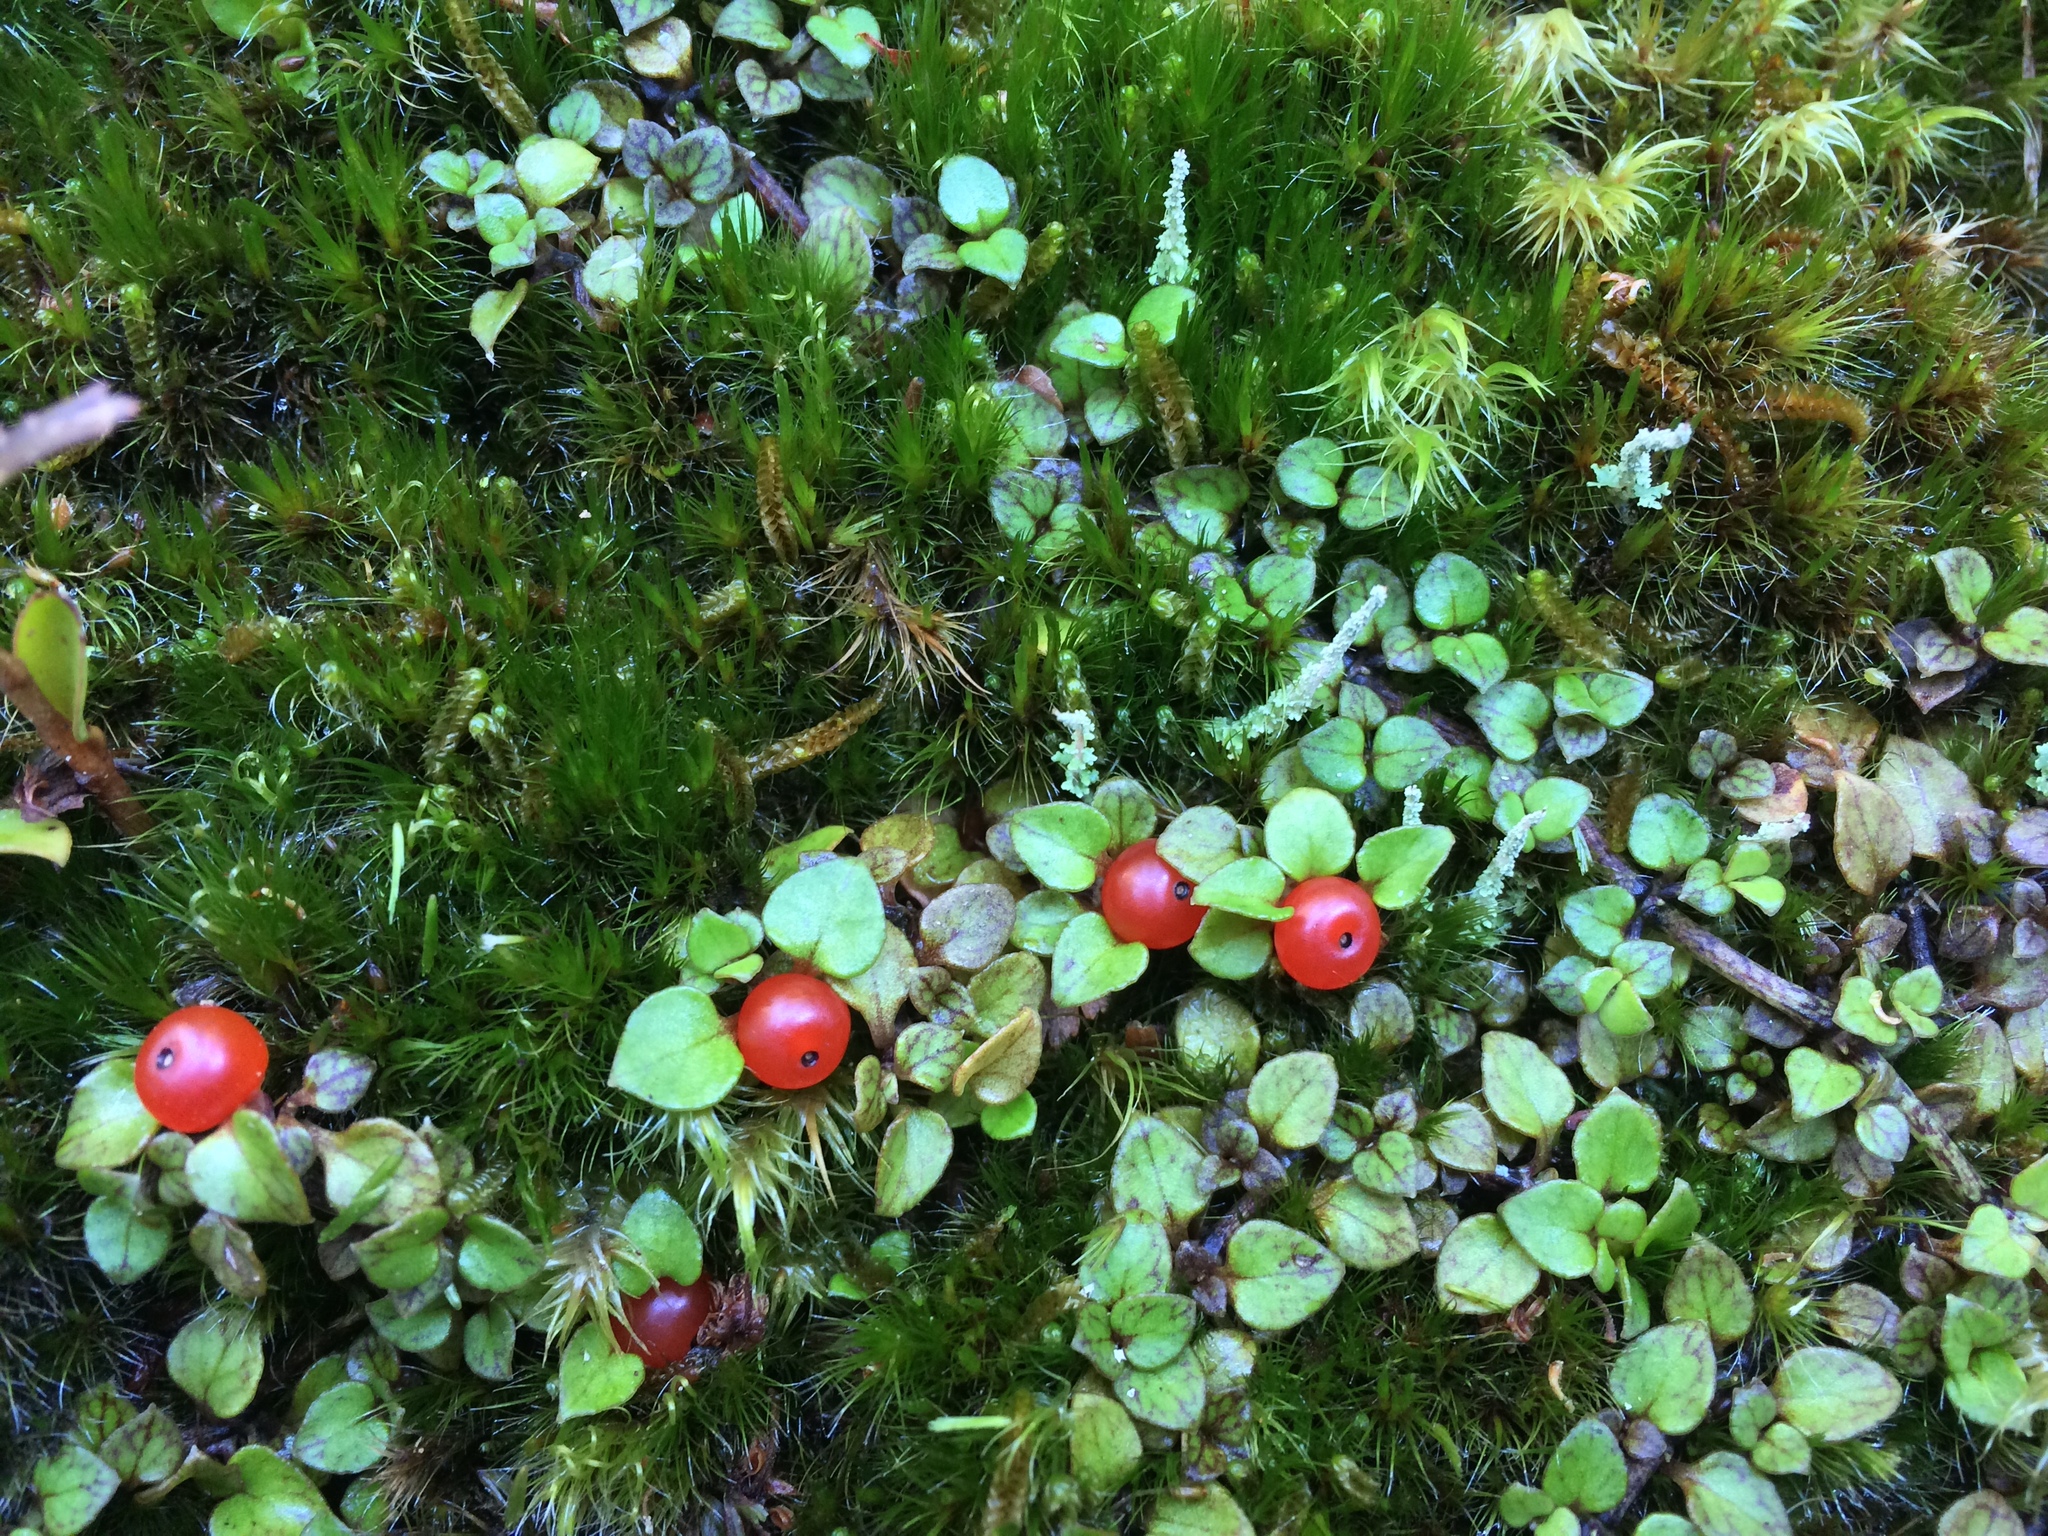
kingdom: Plantae
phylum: Tracheophyta
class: Magnoliopsida
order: Gentianales
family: Rubiaceae
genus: Nertera
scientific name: Nertera granadensis
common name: Beadplant
